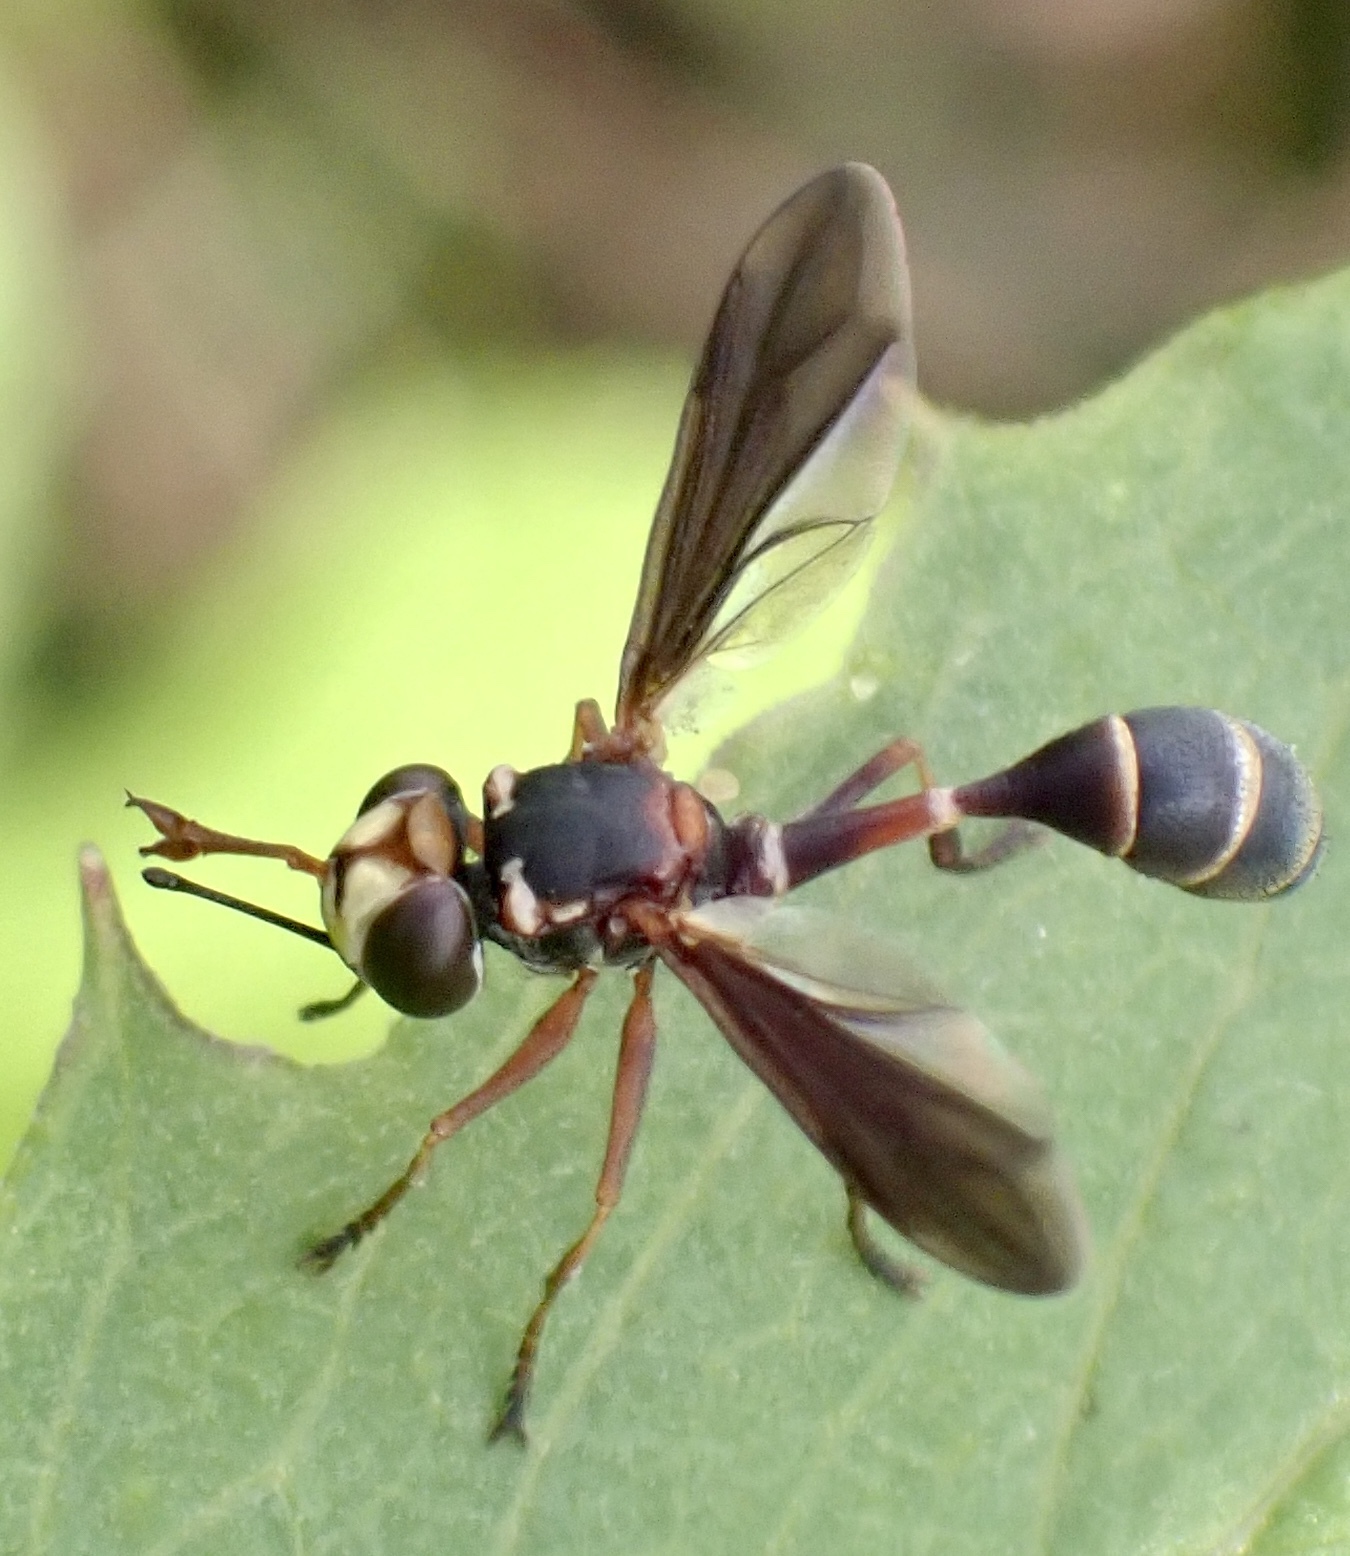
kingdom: Animalia
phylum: Arthropoda
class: Insecta
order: Diptera
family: Conopidae
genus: Physocephala
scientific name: Physocephala sagittaria
